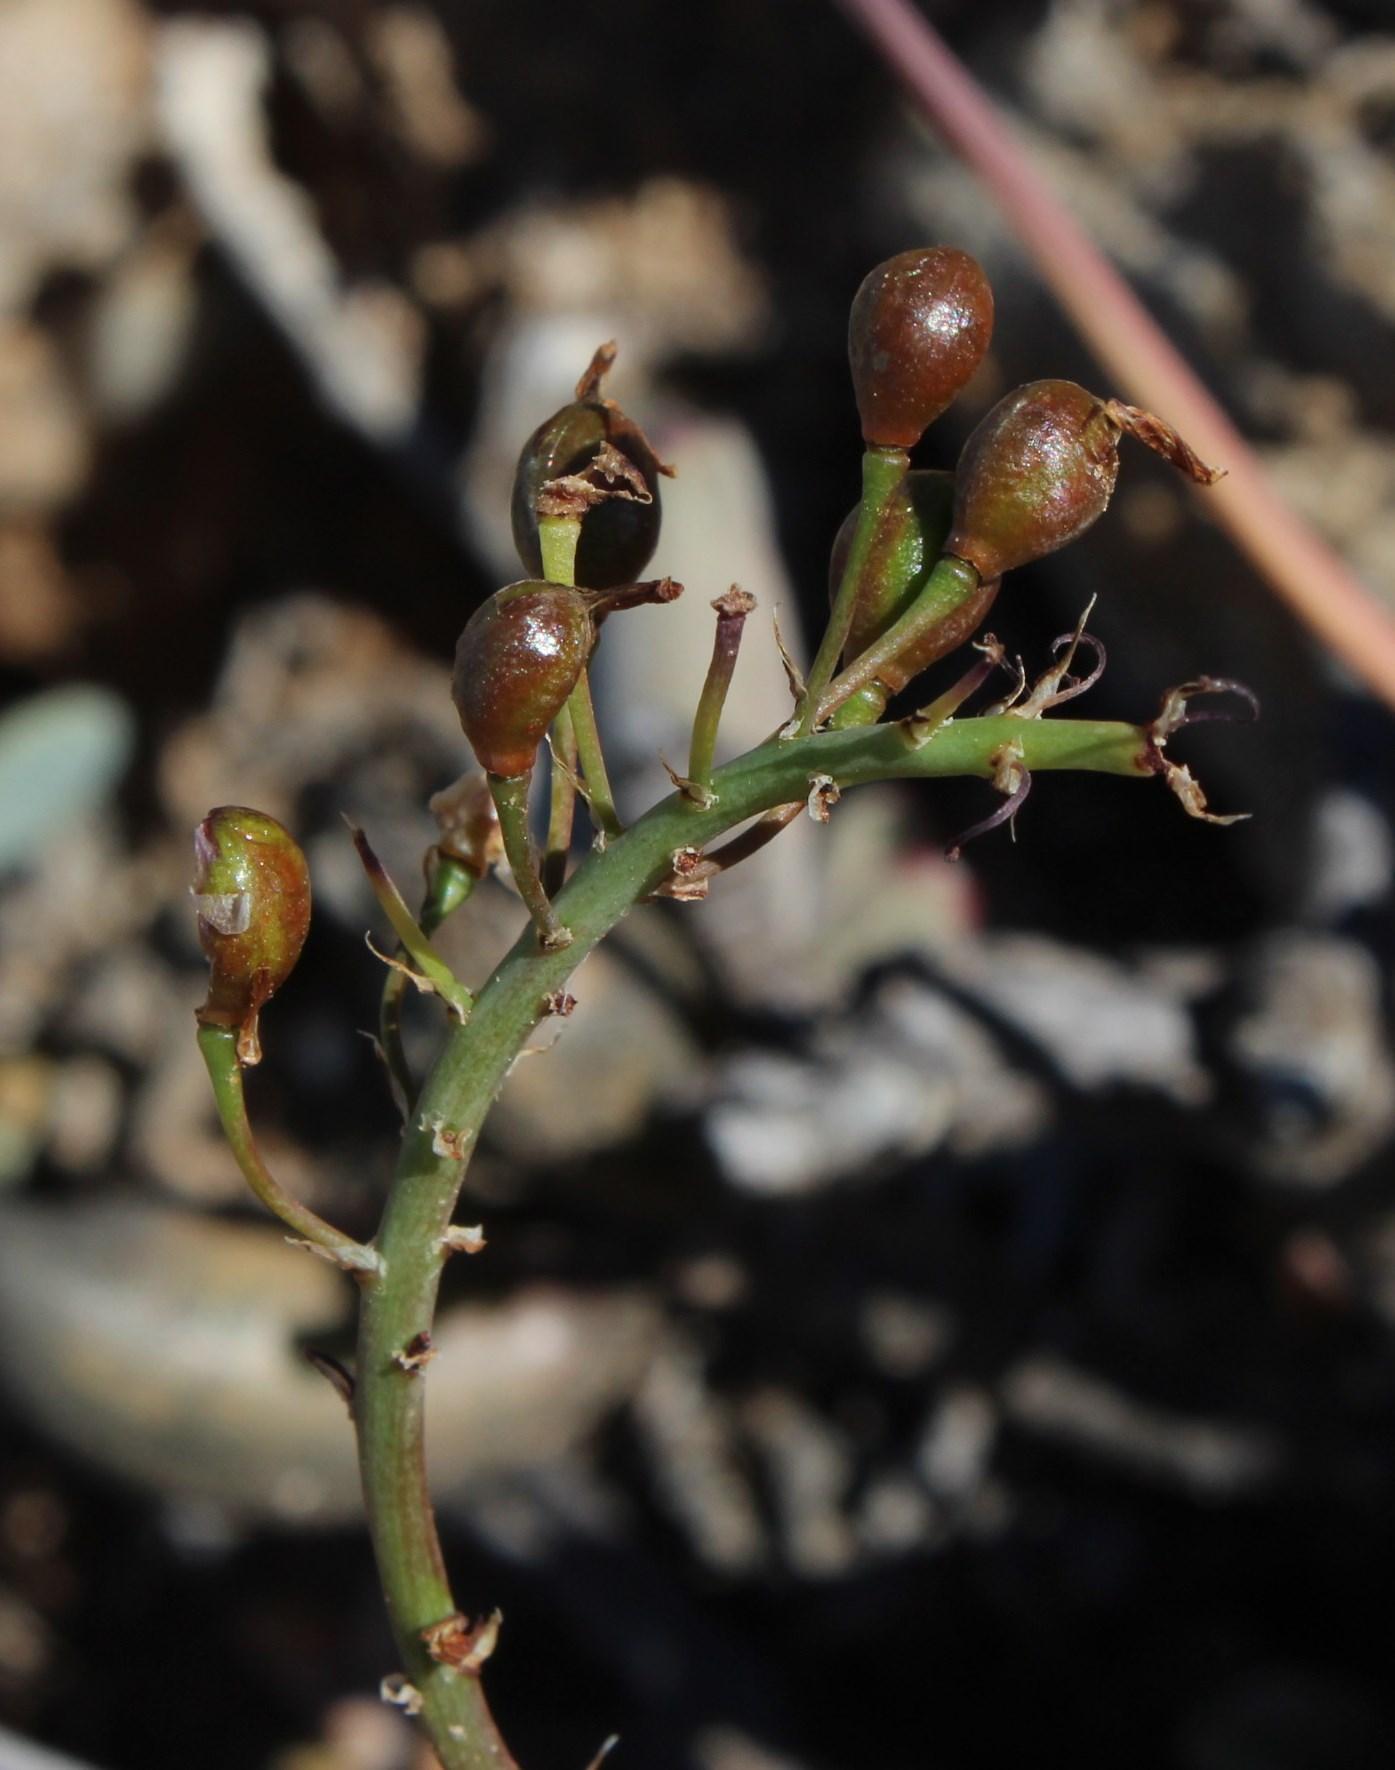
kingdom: Plantae
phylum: Tracheophyta
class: Liliopsida
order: Asparagales
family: Asphodelaceae
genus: Bulbine
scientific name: Bulbine frutescens
